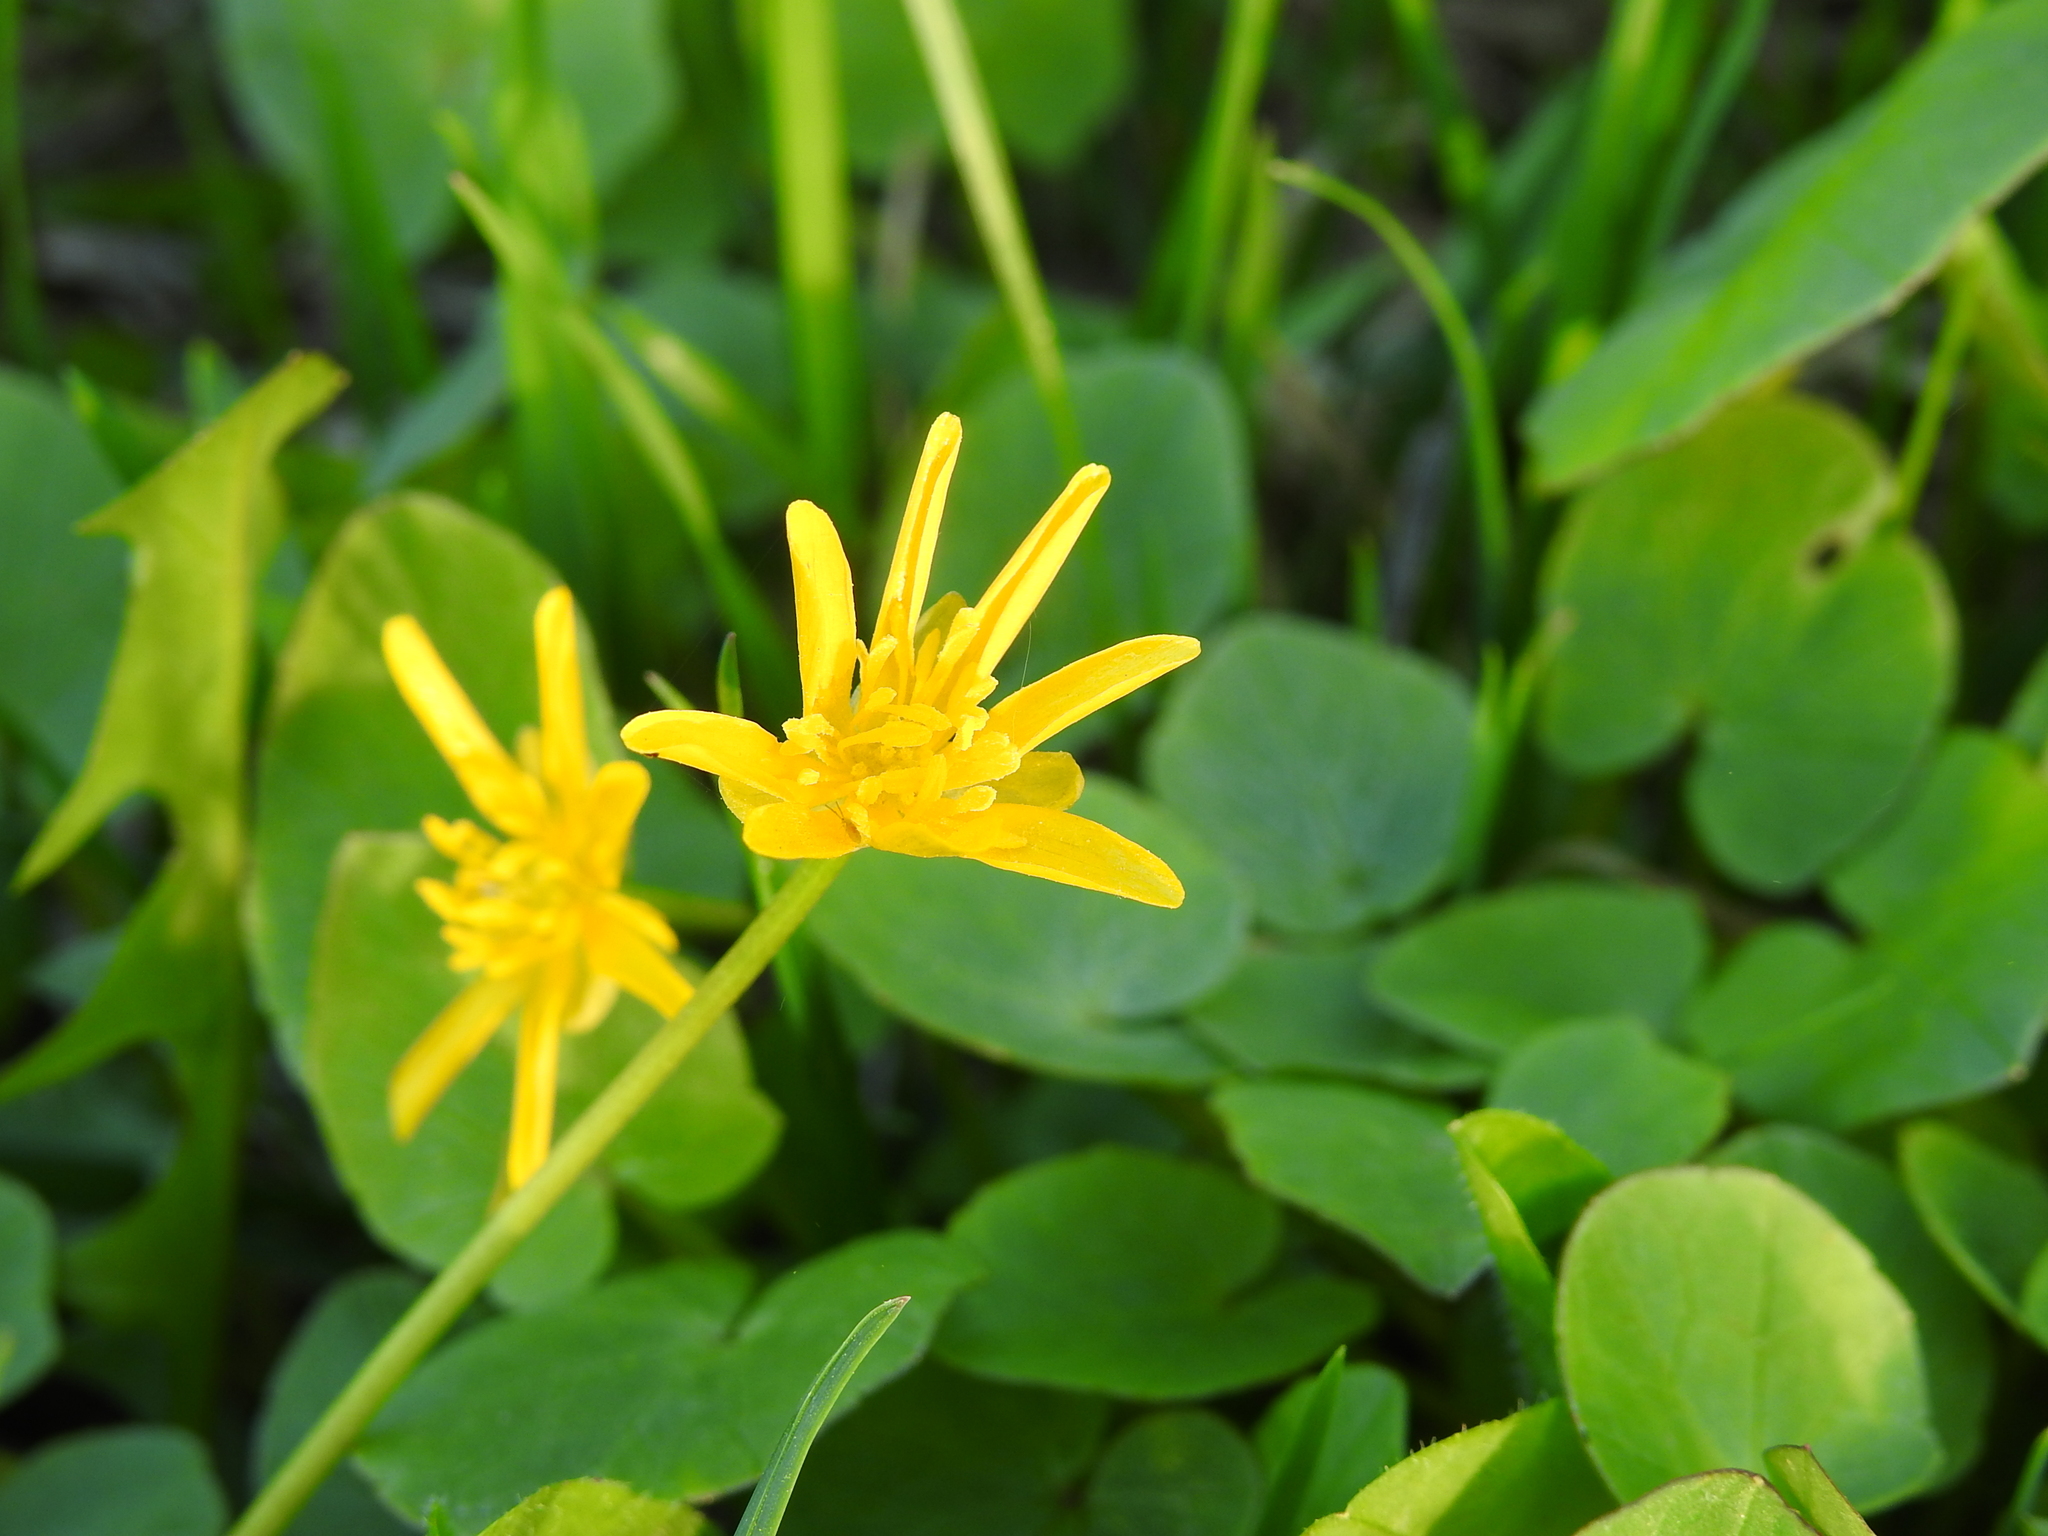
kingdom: Plantae
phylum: Tracheophyta
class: Magnoliopsida
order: Ranunculales
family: Ranunculaceae
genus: Ficaria
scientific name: Ficaria verna
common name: Lesser celandine
